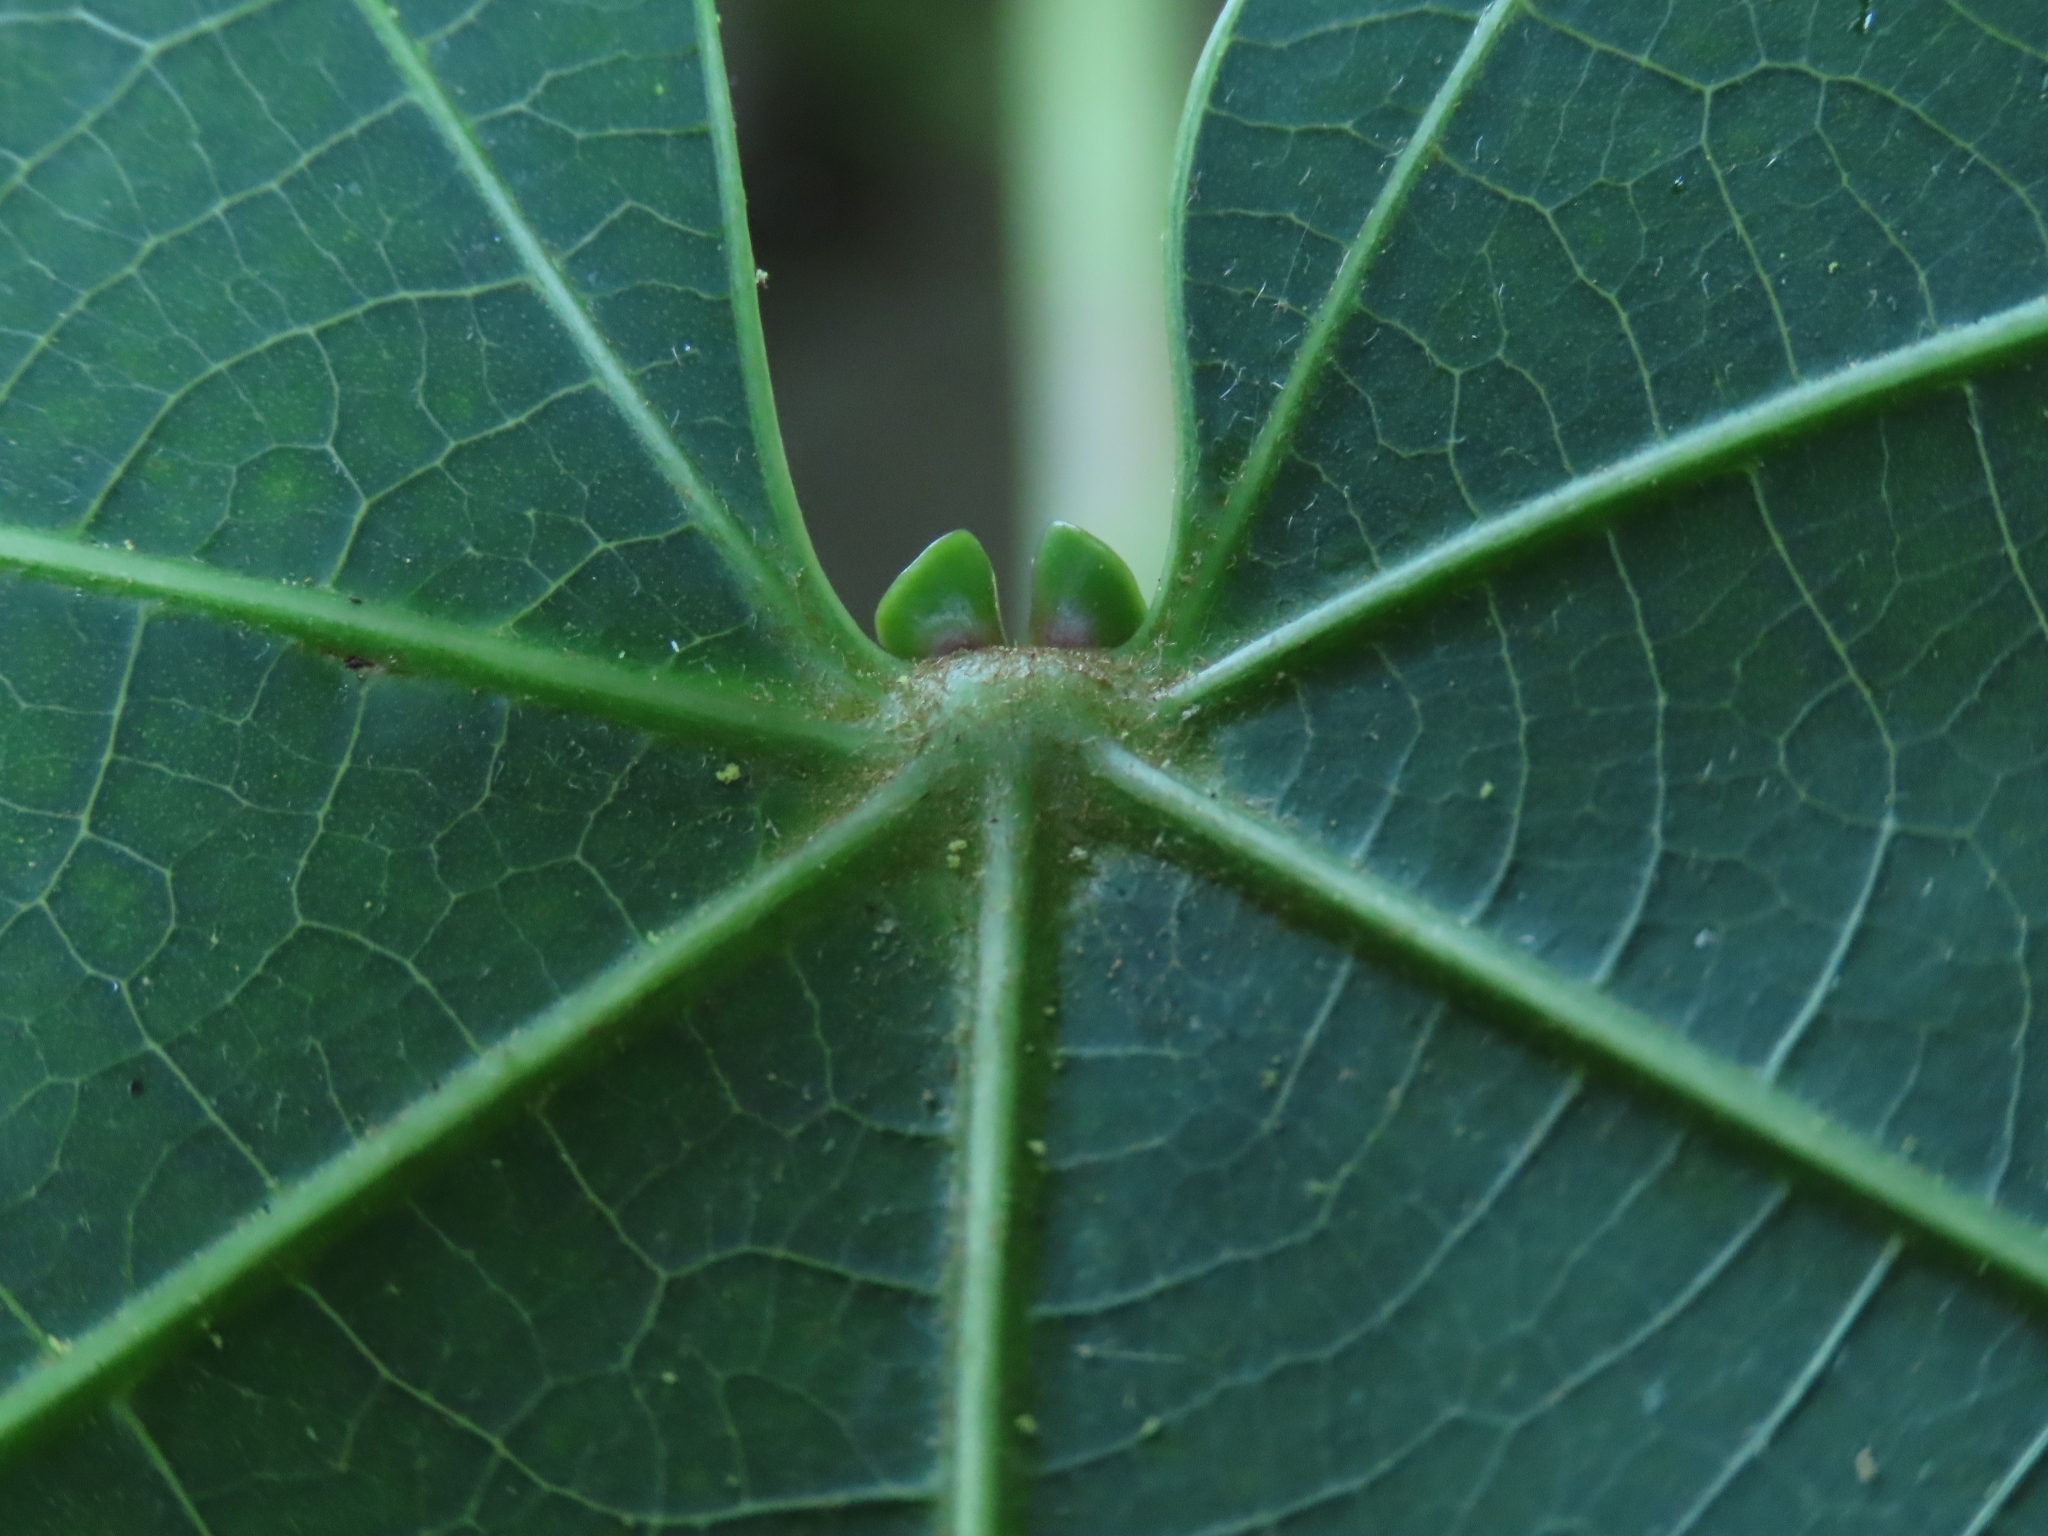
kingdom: Plantae
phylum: Tracheophyta
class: Magnoliopsida
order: Malpighiales
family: Euphorbiaceae
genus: Vernicia
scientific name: Vernicia montana
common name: Mu oil tree
